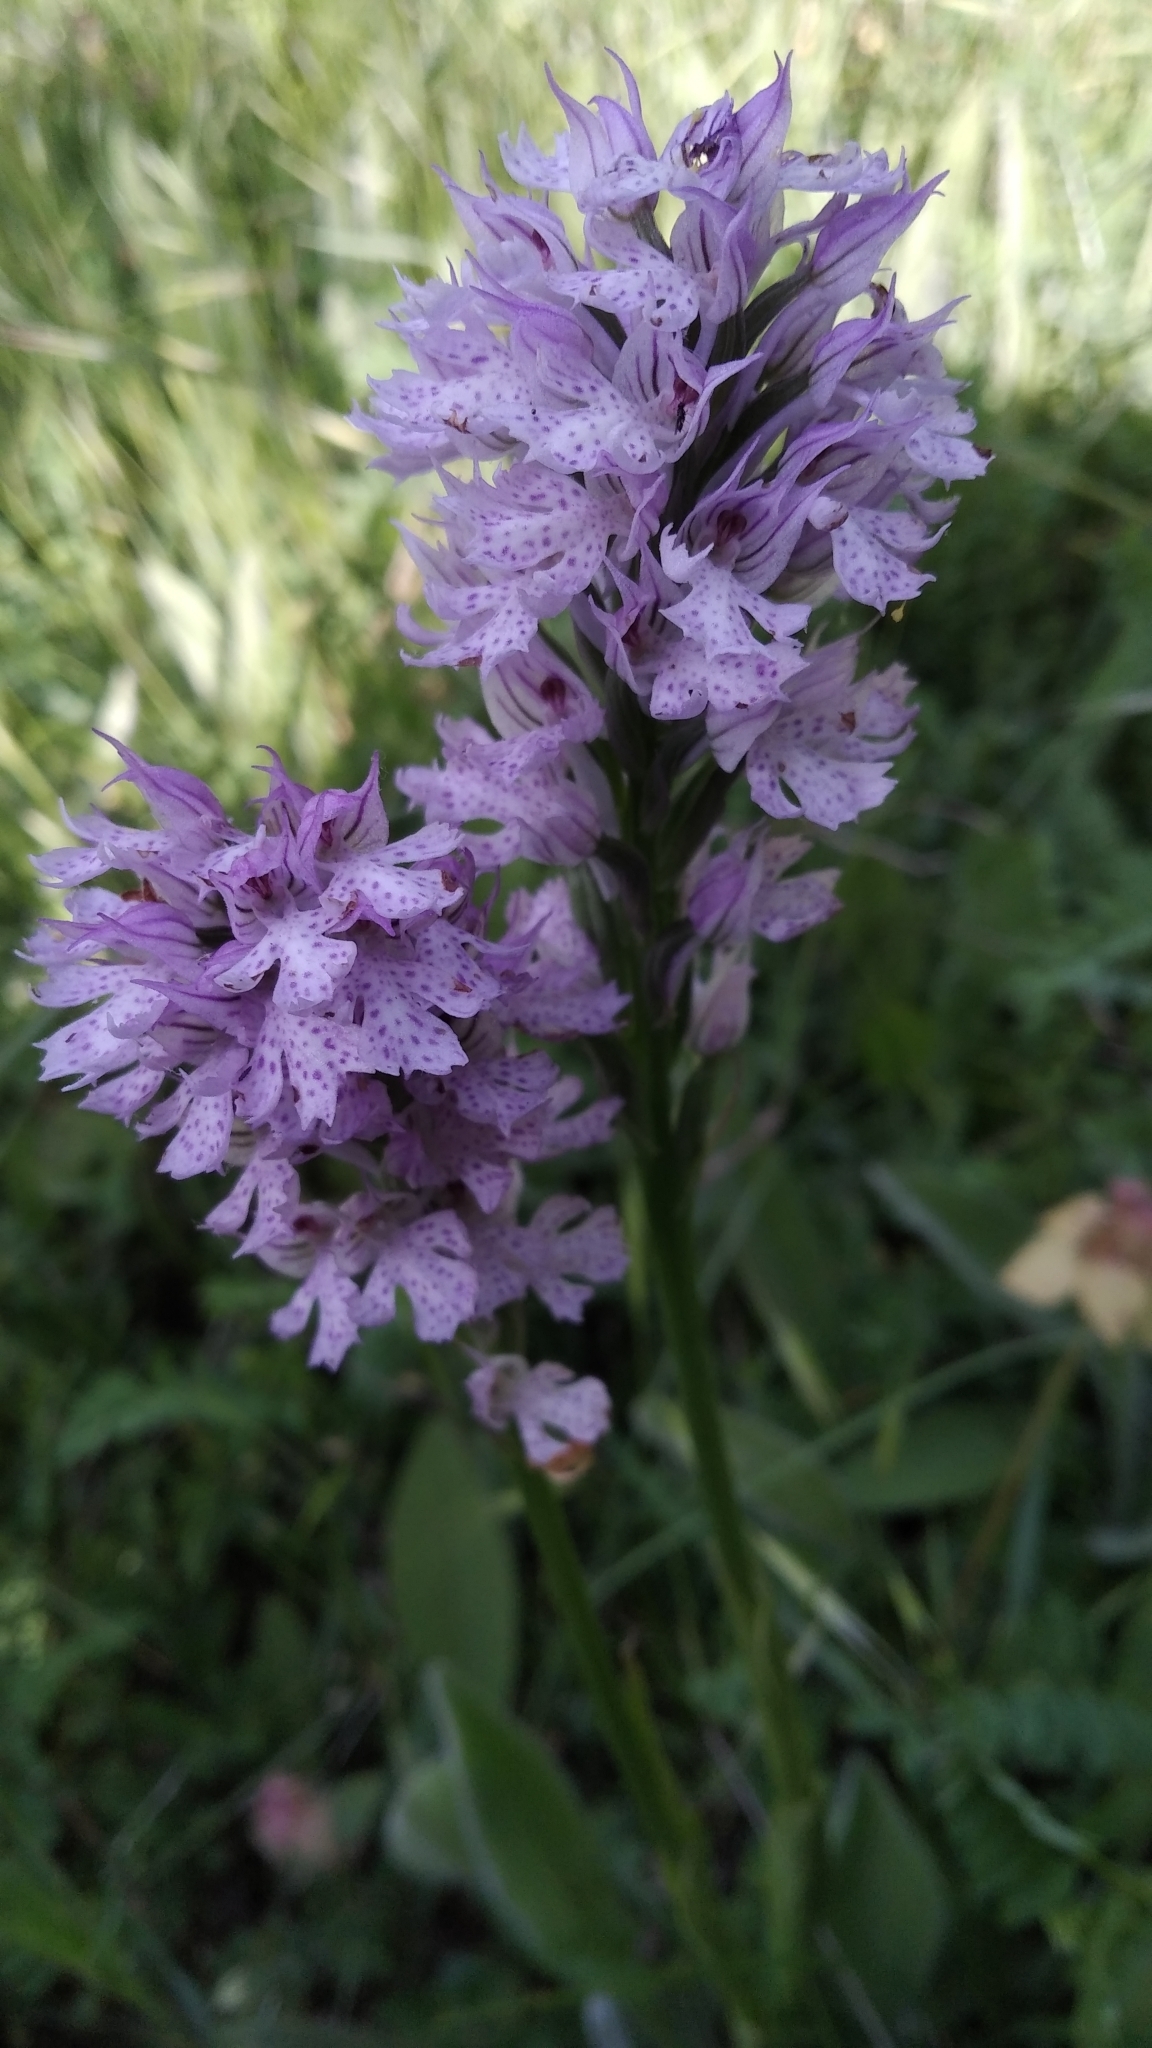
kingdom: Plantae
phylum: Tracheophyta
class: Liliopsida
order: Asparagales
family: Orchidaceae
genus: Neotinea
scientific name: Neotinea tridentata
